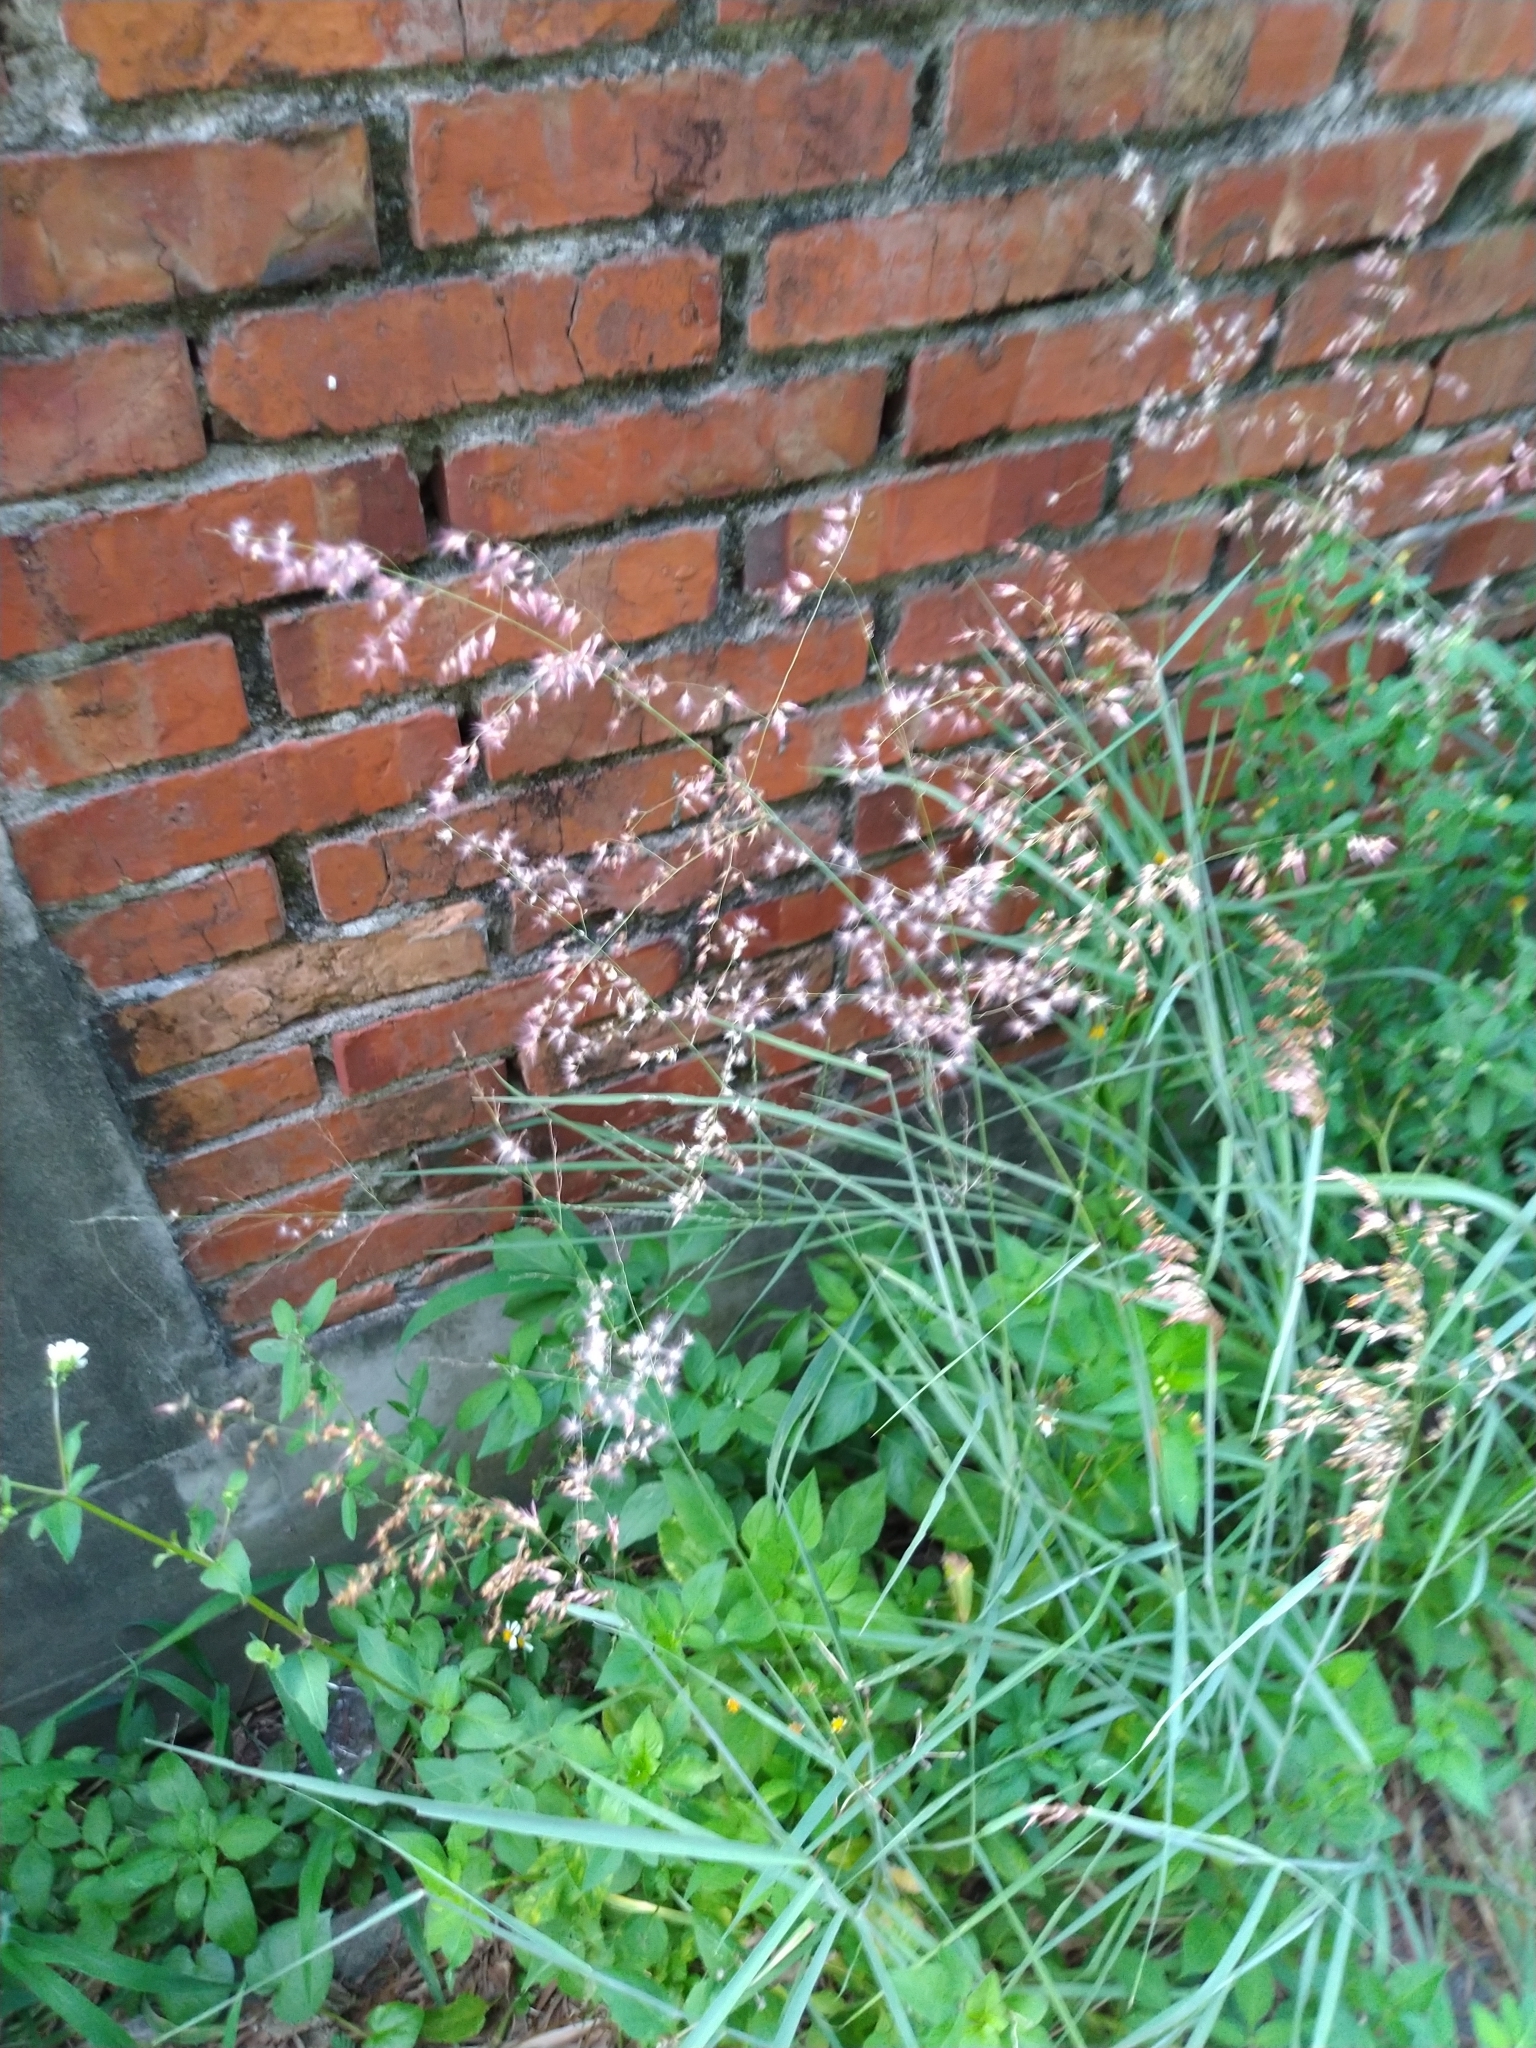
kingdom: Plantae
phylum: Tracheophyta
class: Liliopsida
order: Poales
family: Poaceae
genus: Melinis
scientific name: Melinis repens
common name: Rose natal grass
